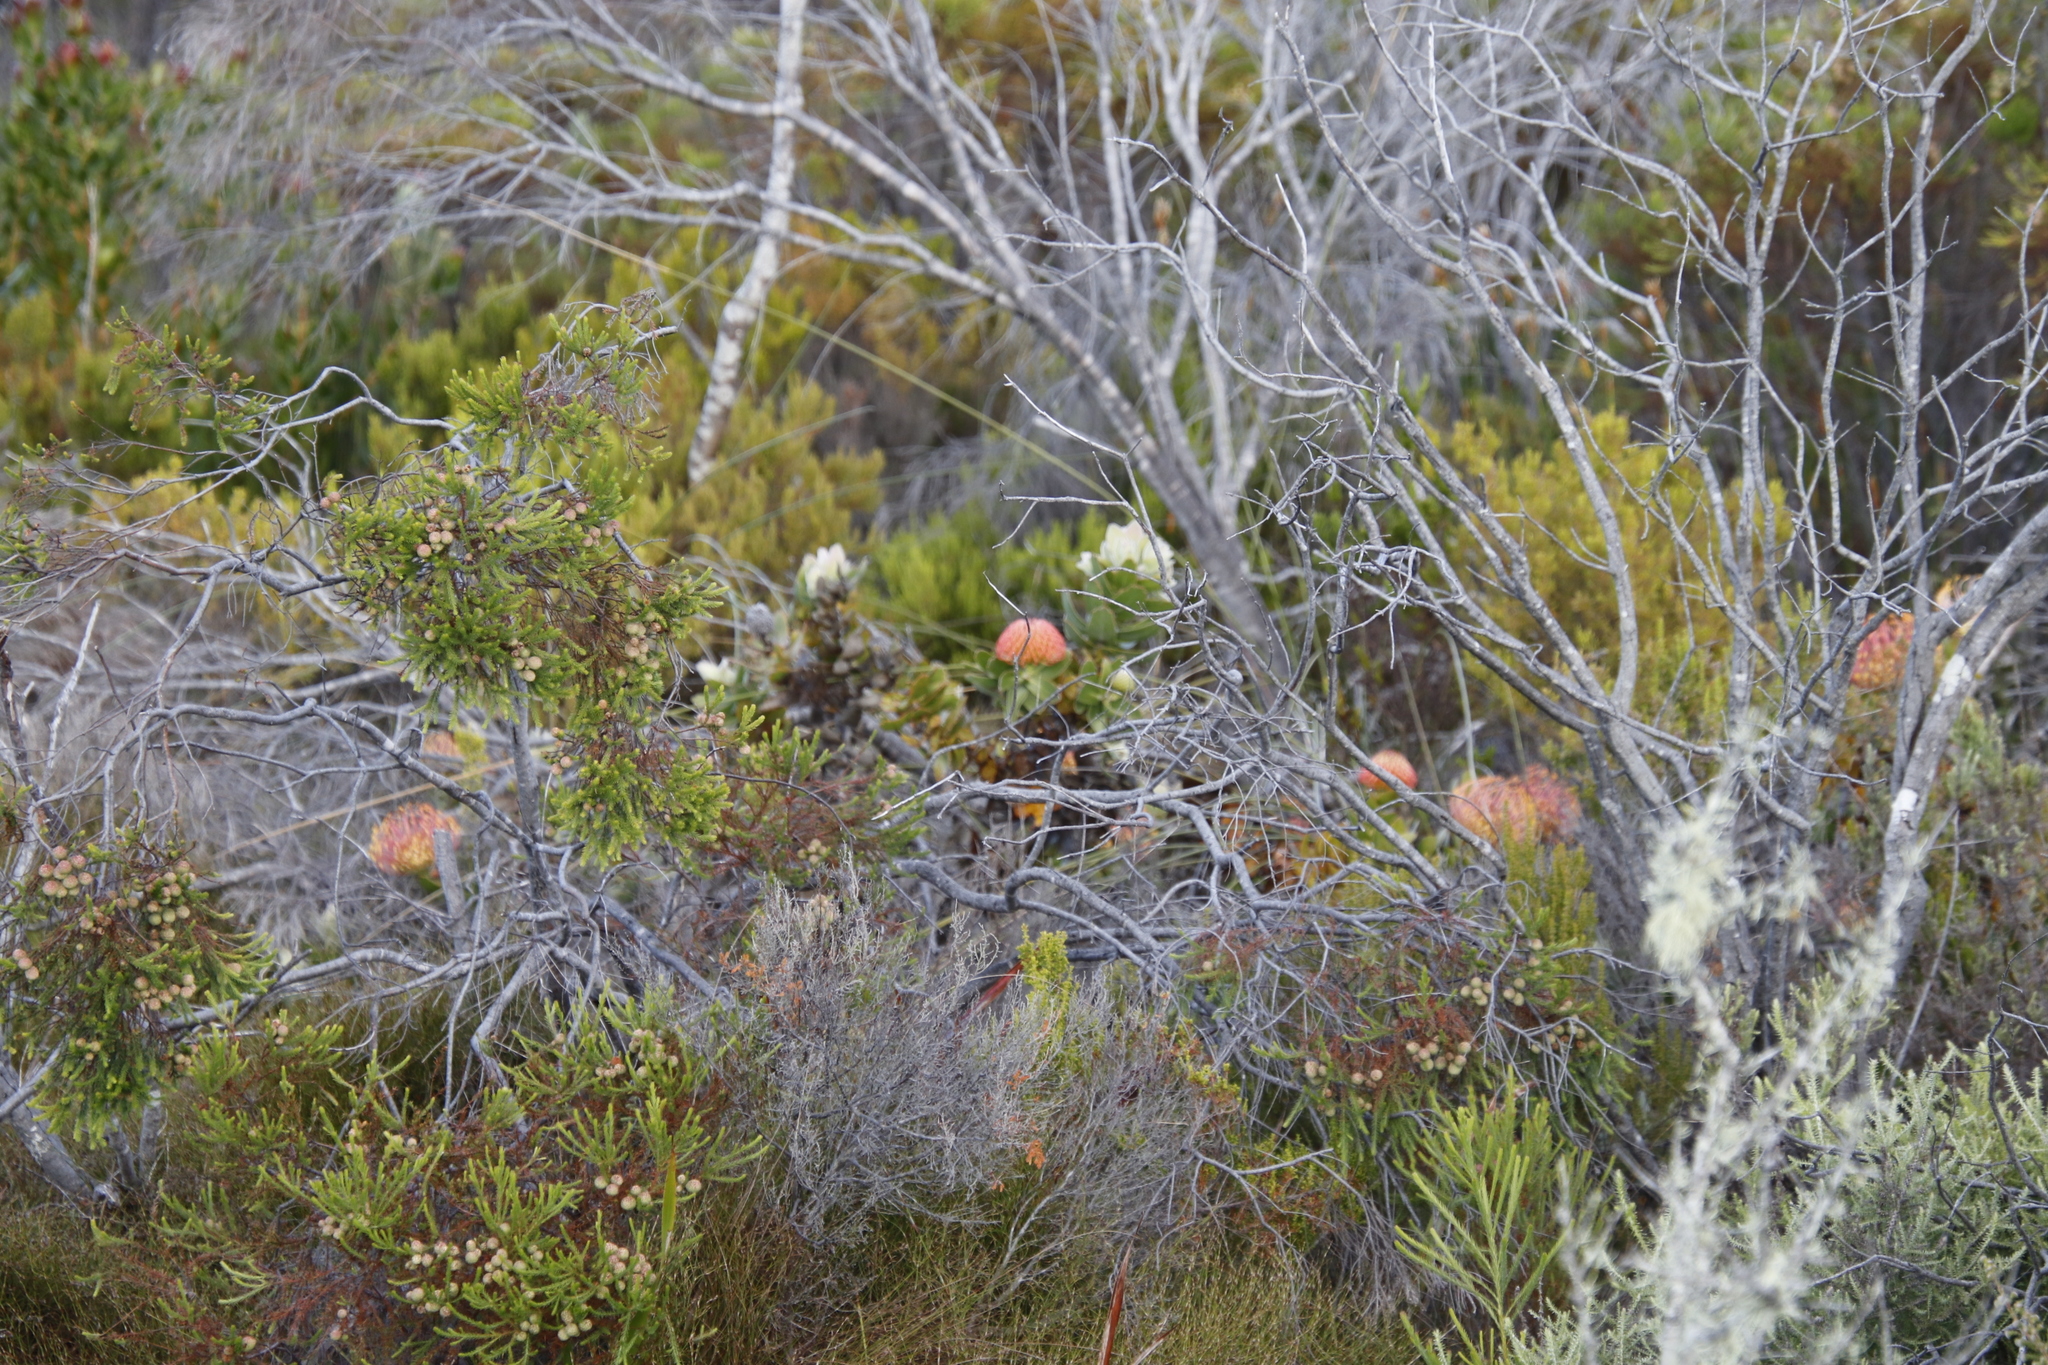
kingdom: Plantae
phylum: Tracheophyta
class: Magnoliopsida
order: Proteales
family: Proteaceae
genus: Leucospermum
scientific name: Leucospermum cordifolium
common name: Red pincushion-protea
